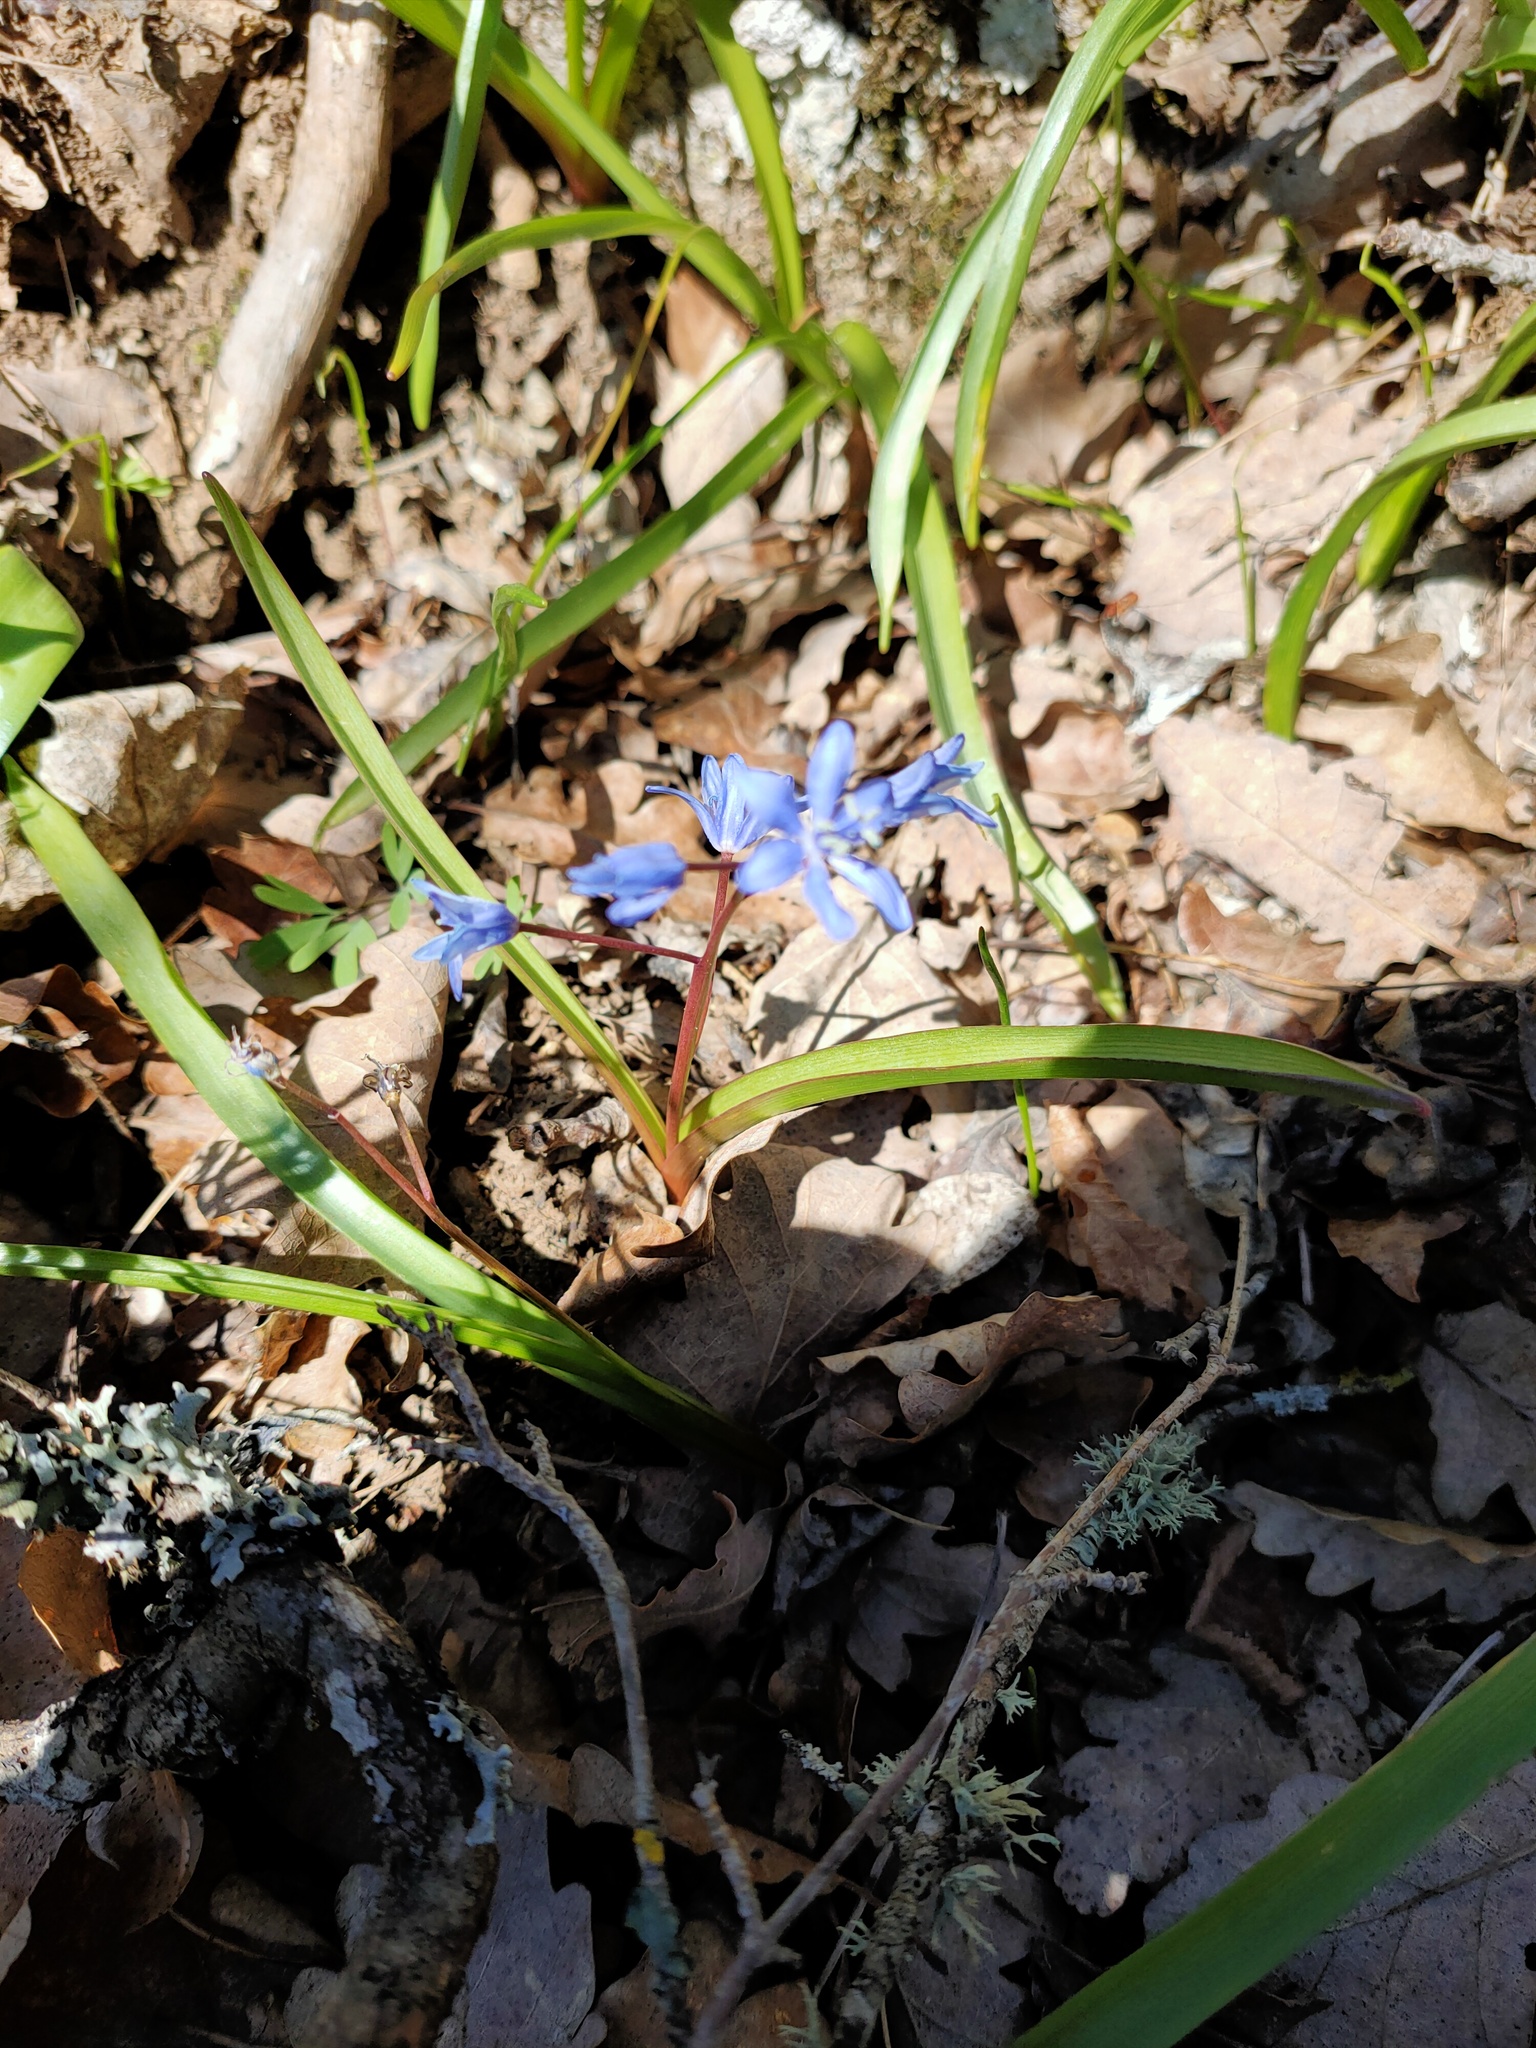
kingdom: Plantae
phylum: Tracheophyta
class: Liliopsida
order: Asparagales
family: Asparagaceae
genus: Scilla
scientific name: Scilla bifolia
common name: Alpine squill
